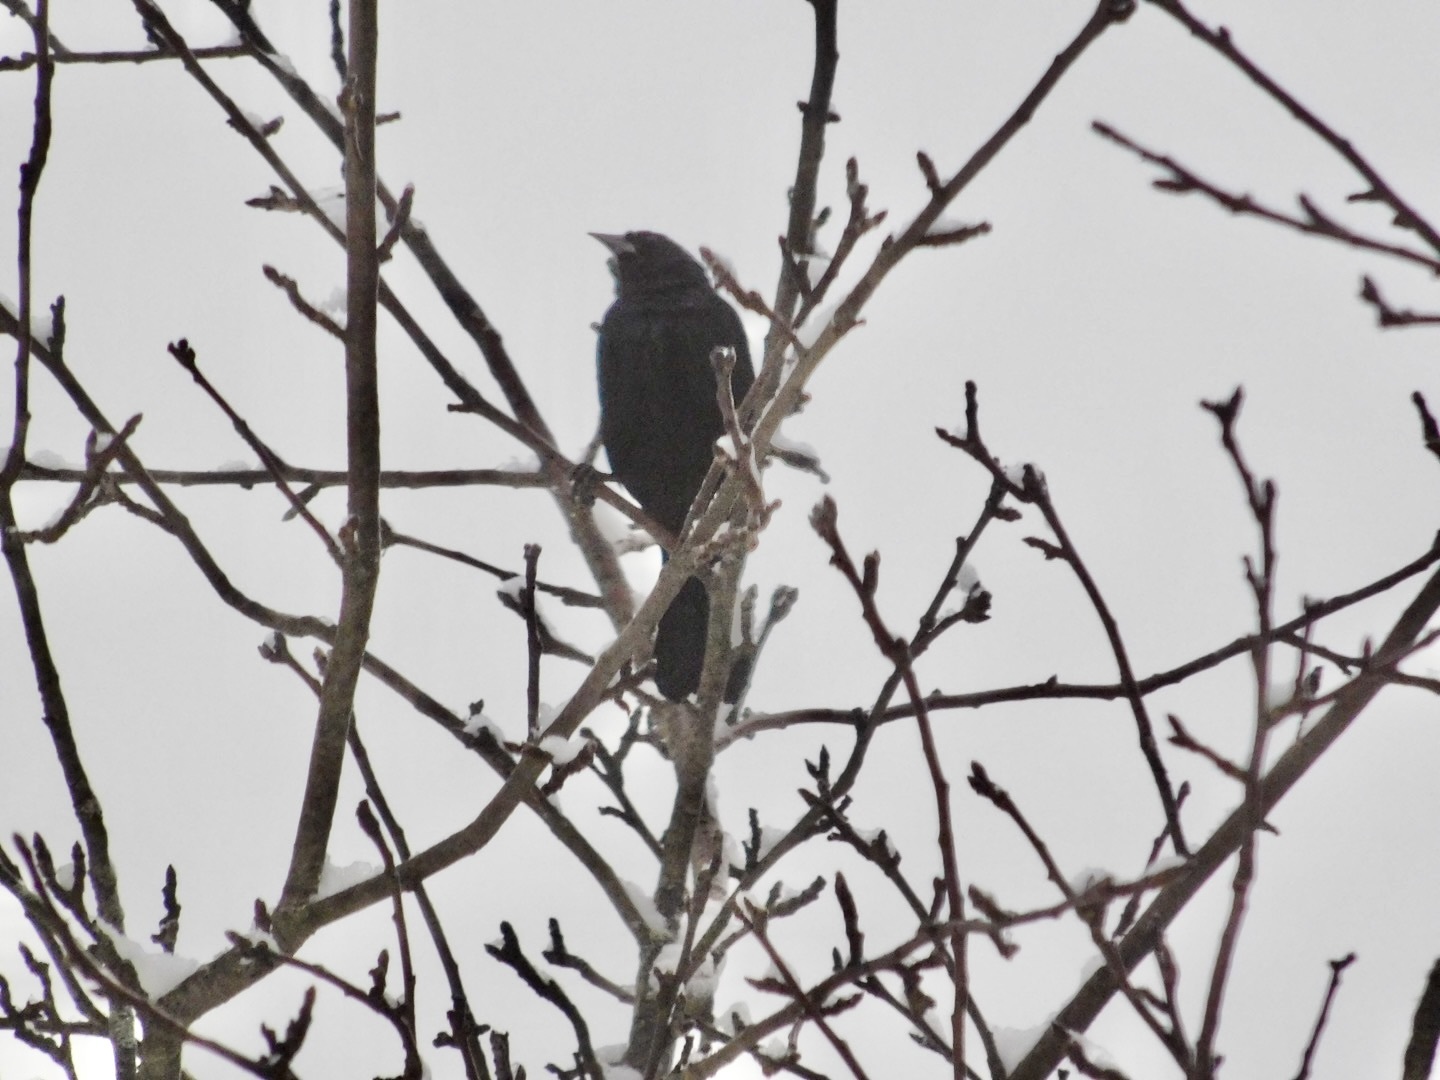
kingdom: Animalia
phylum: Chordata
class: Aves
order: Passeriformes
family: Icteridae
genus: Agelaius
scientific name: Agelaius phoeniceus
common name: Red-winged blackbird
